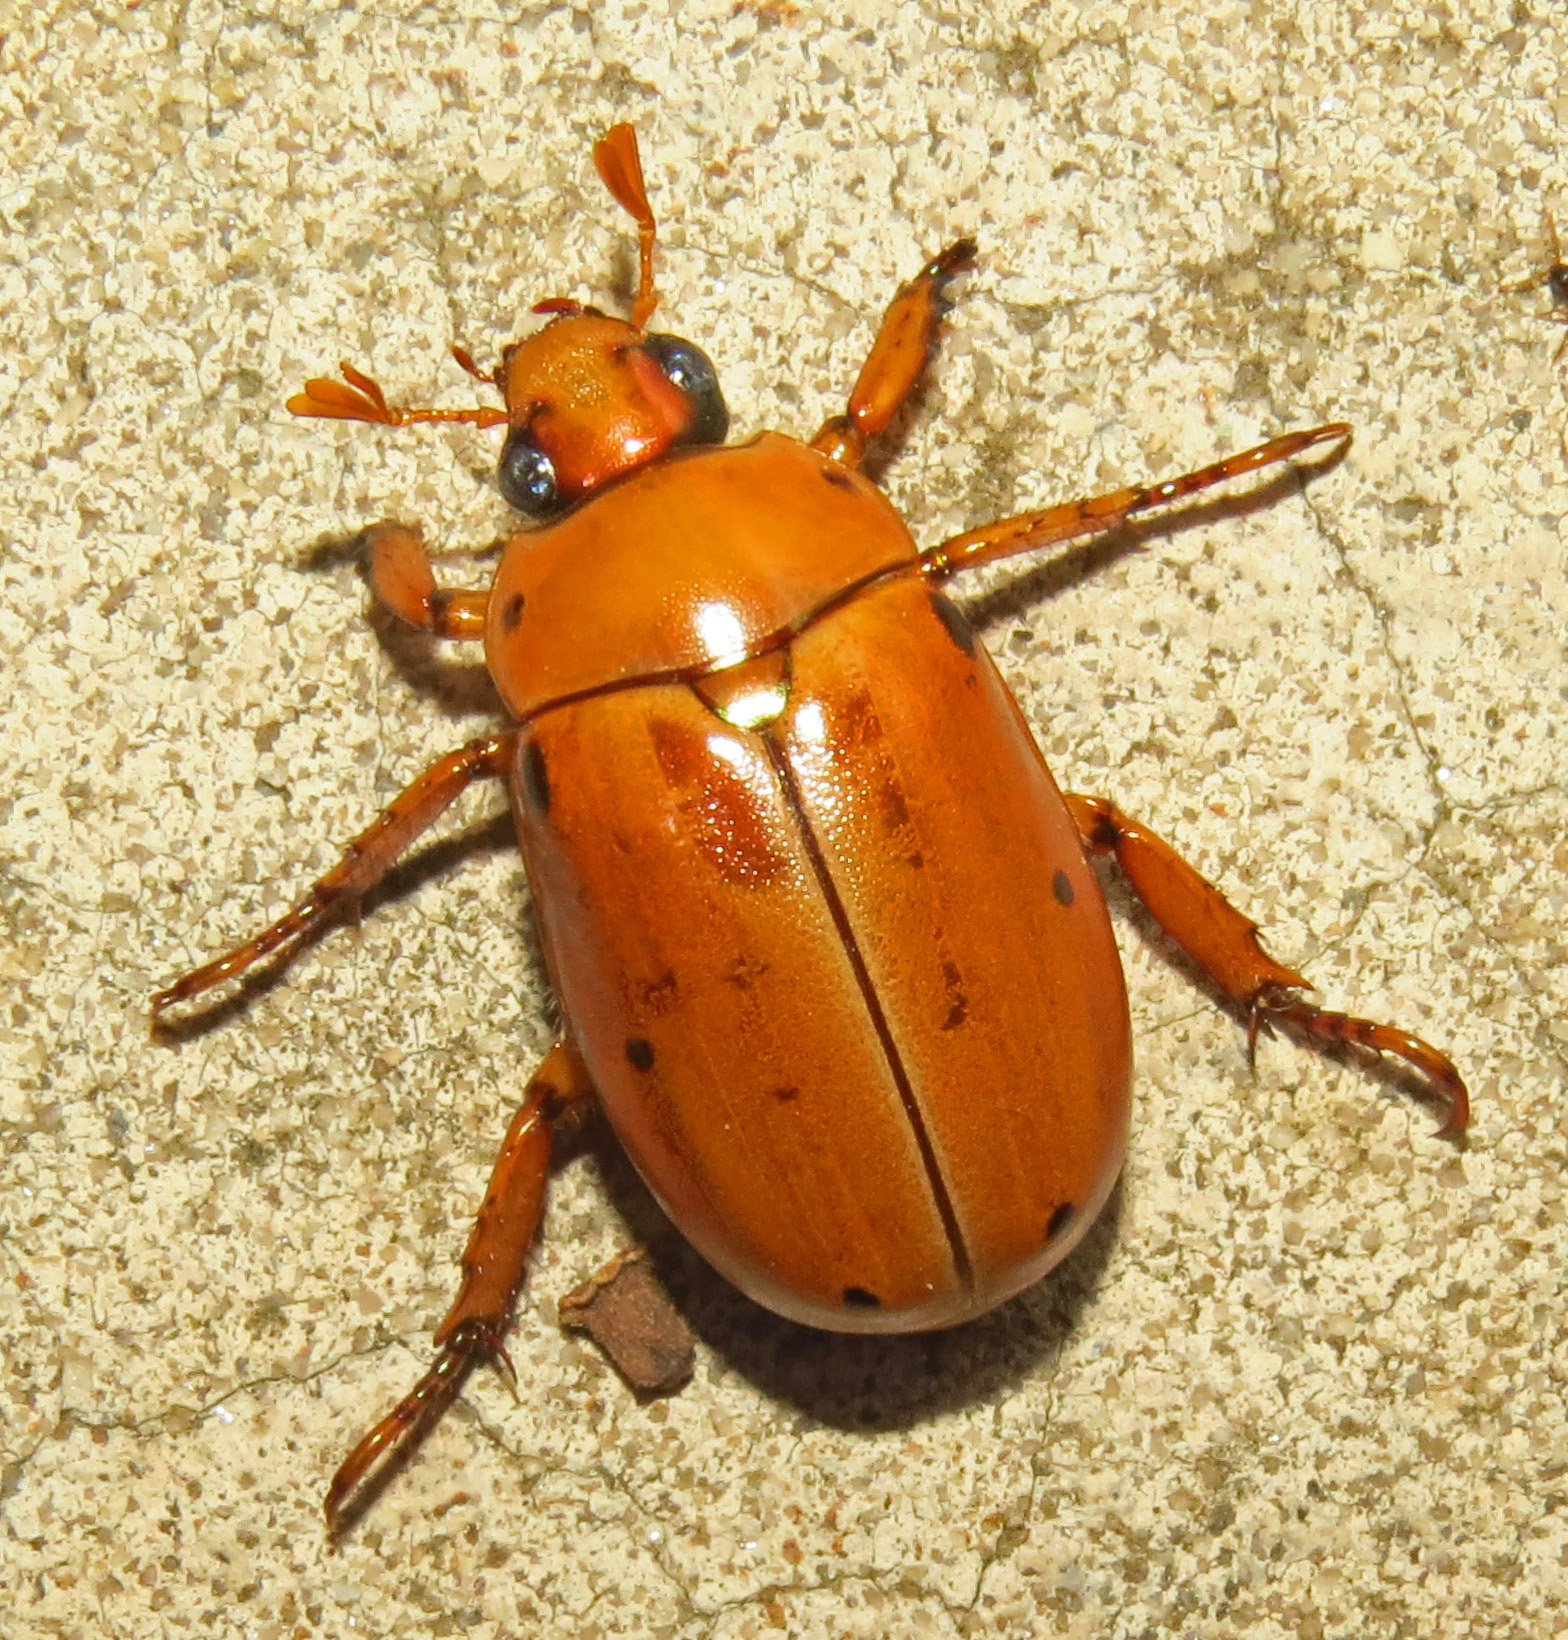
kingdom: Animalia
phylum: Arthropoda
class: Insecta
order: Coleoptera
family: Scarabaeidae
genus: Pelidnota
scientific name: Pelidnota punctata
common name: Grapevine beetle
